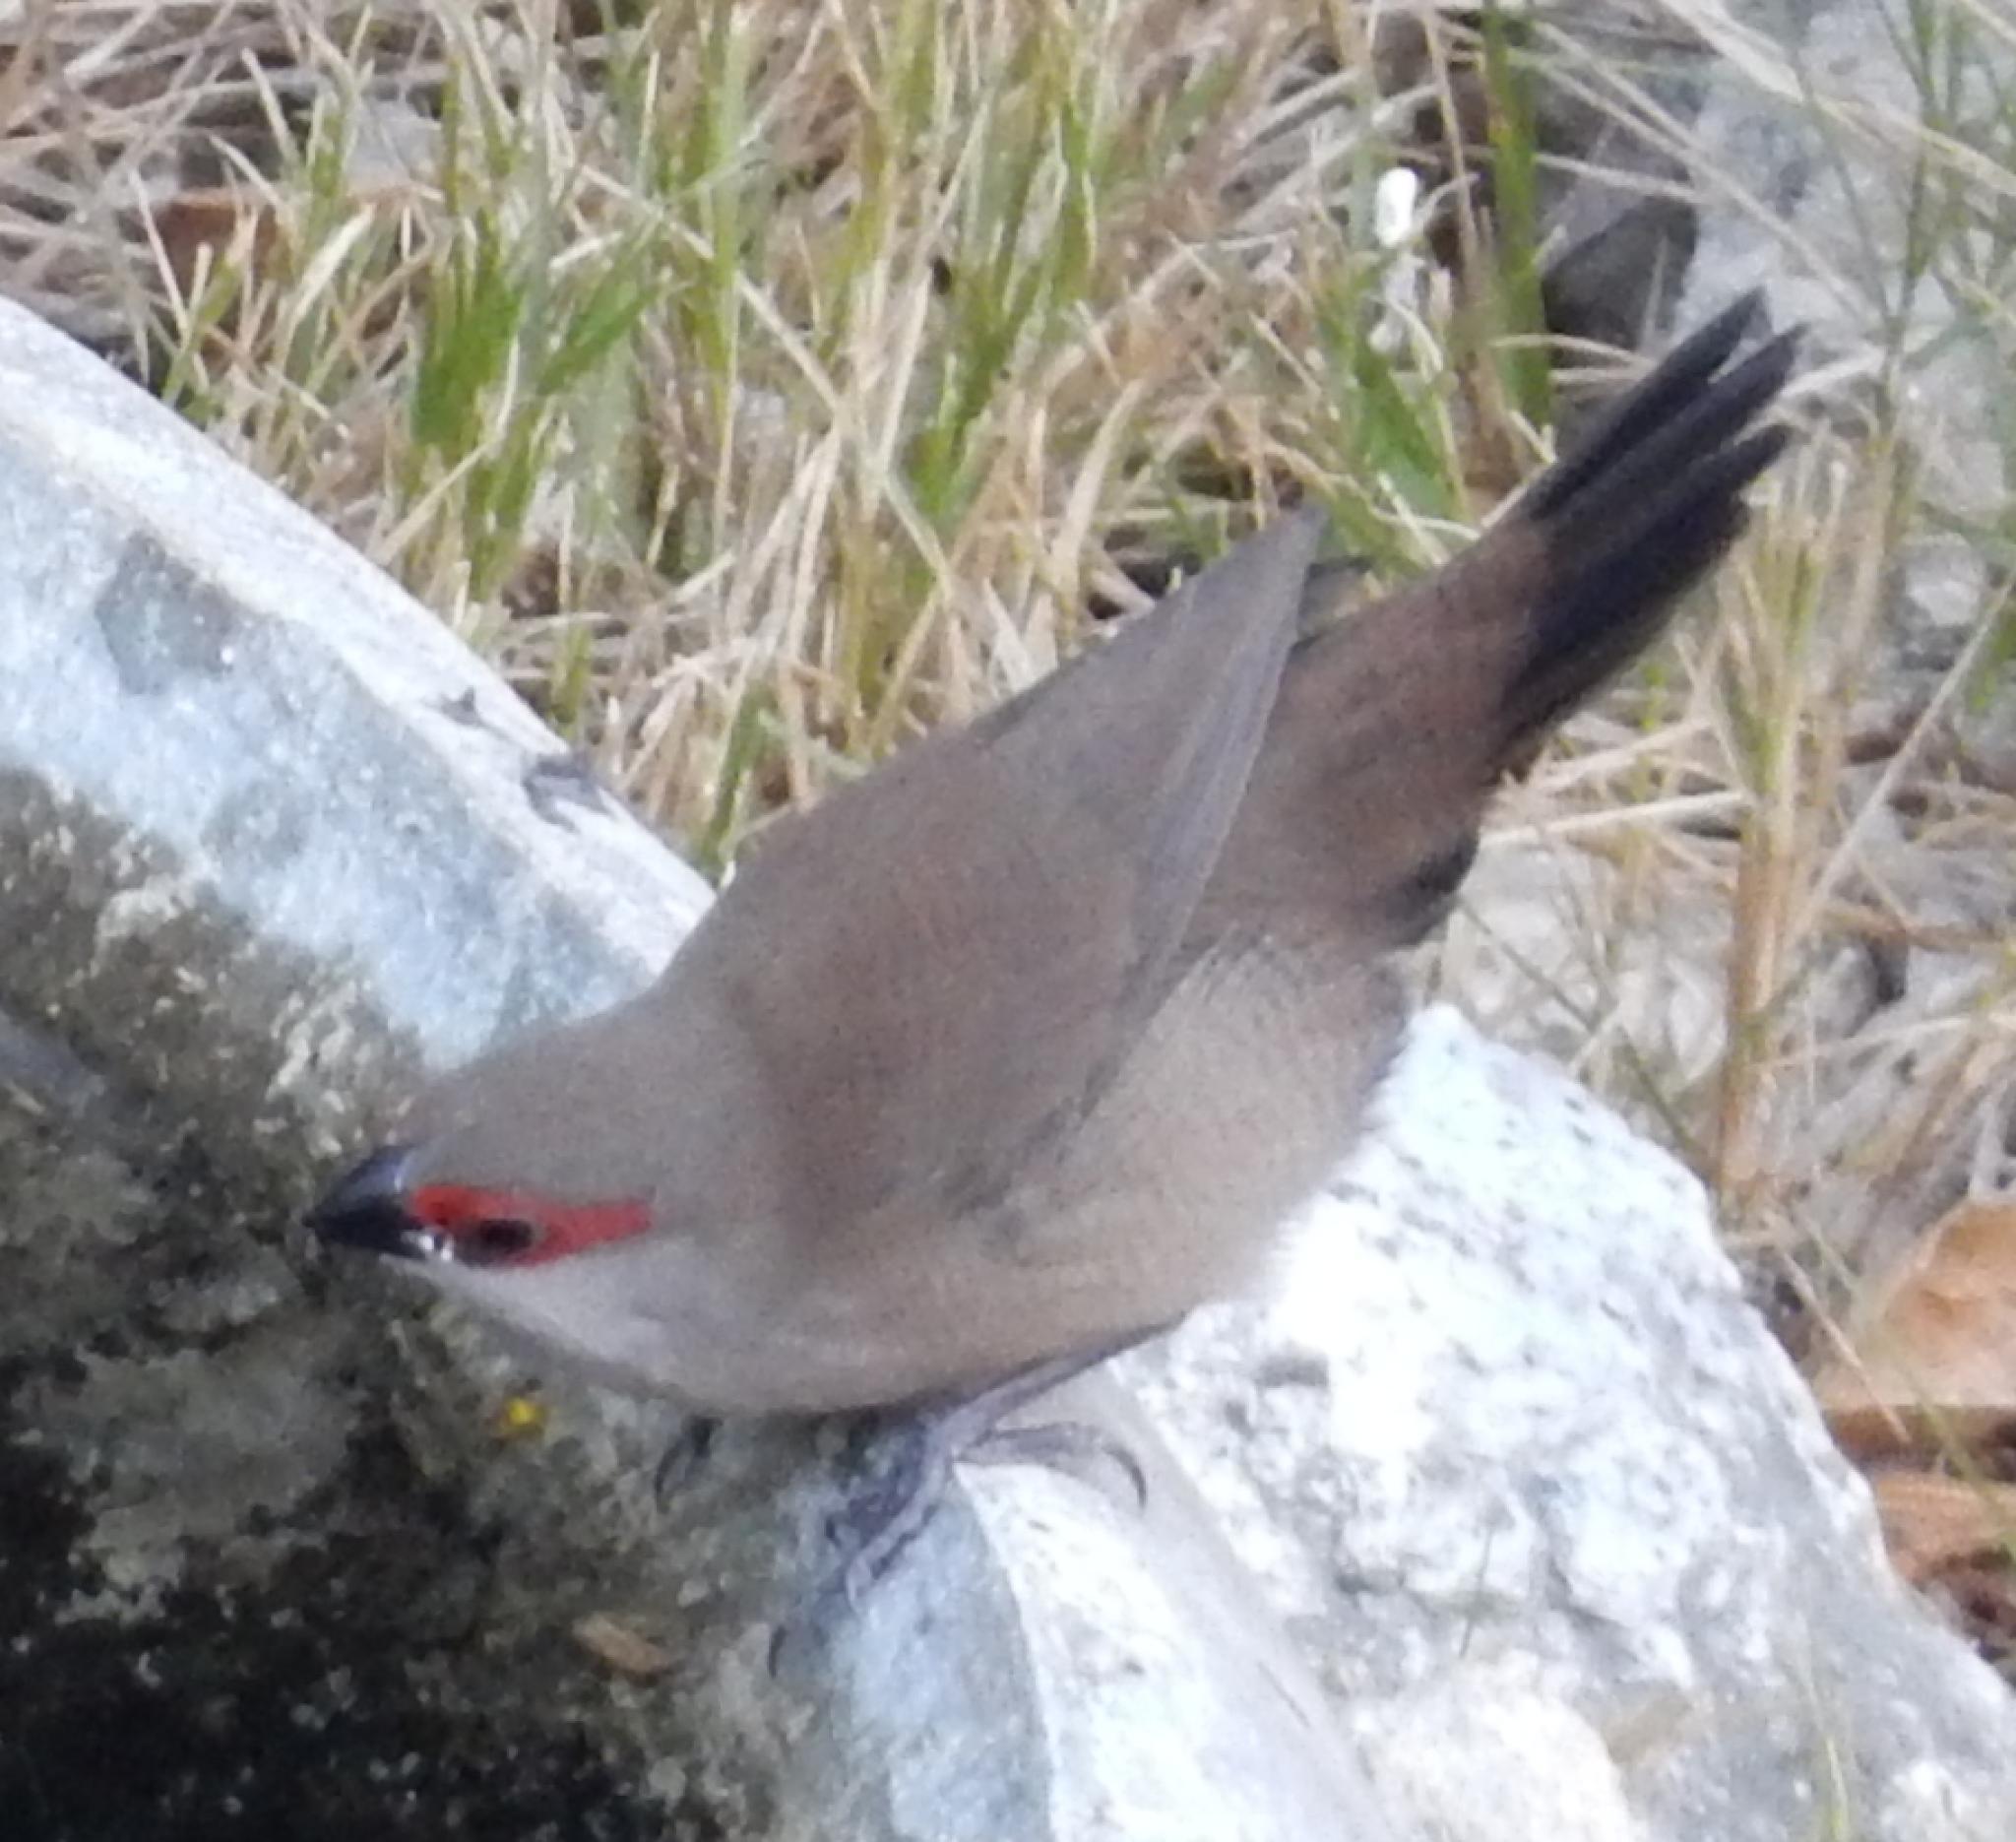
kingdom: Animalia
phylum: Chordata
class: Aves
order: Passeriformes
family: Estrildidae
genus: Estrilda
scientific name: Estrilda astrild
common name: Common waxbill
